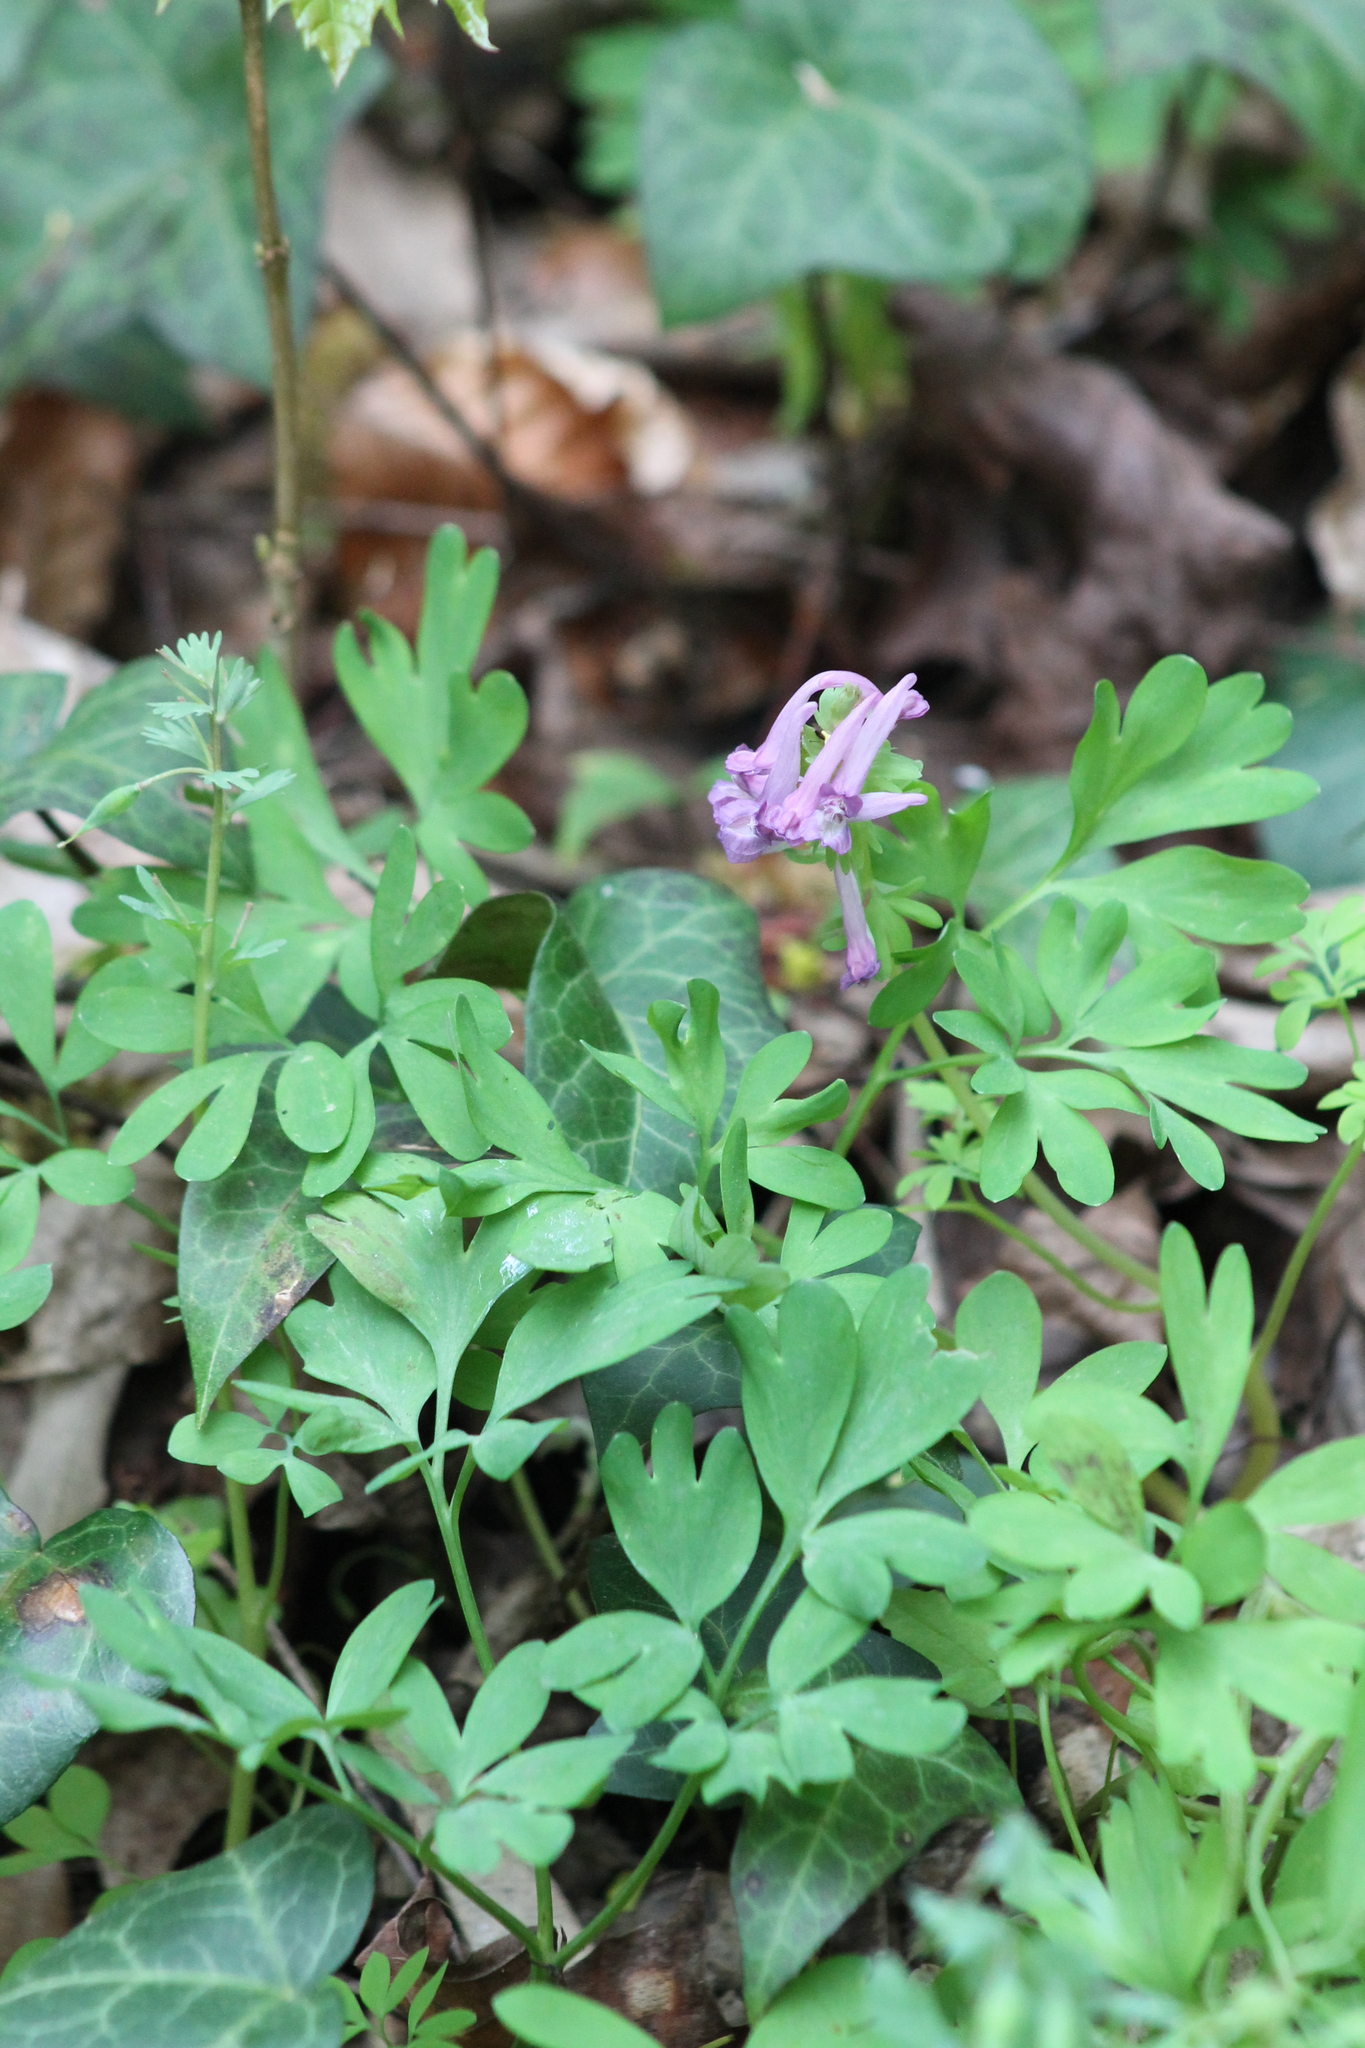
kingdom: Plantae
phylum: Tracheophyta
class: Magnoliopsida
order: Ranunculales
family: Papaveraceae
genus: Corydalis
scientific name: Corydalis solida
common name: Bird-in-a-bush
